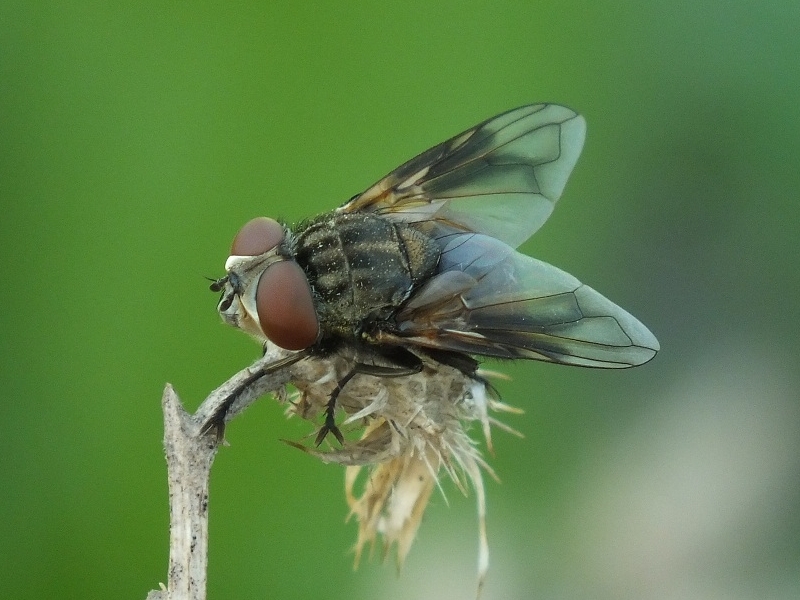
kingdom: Animalia
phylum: Arthropoda
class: Insecta
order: Diptera
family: Tachinidae
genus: Phasia
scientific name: Phasia subcoleoptrata
